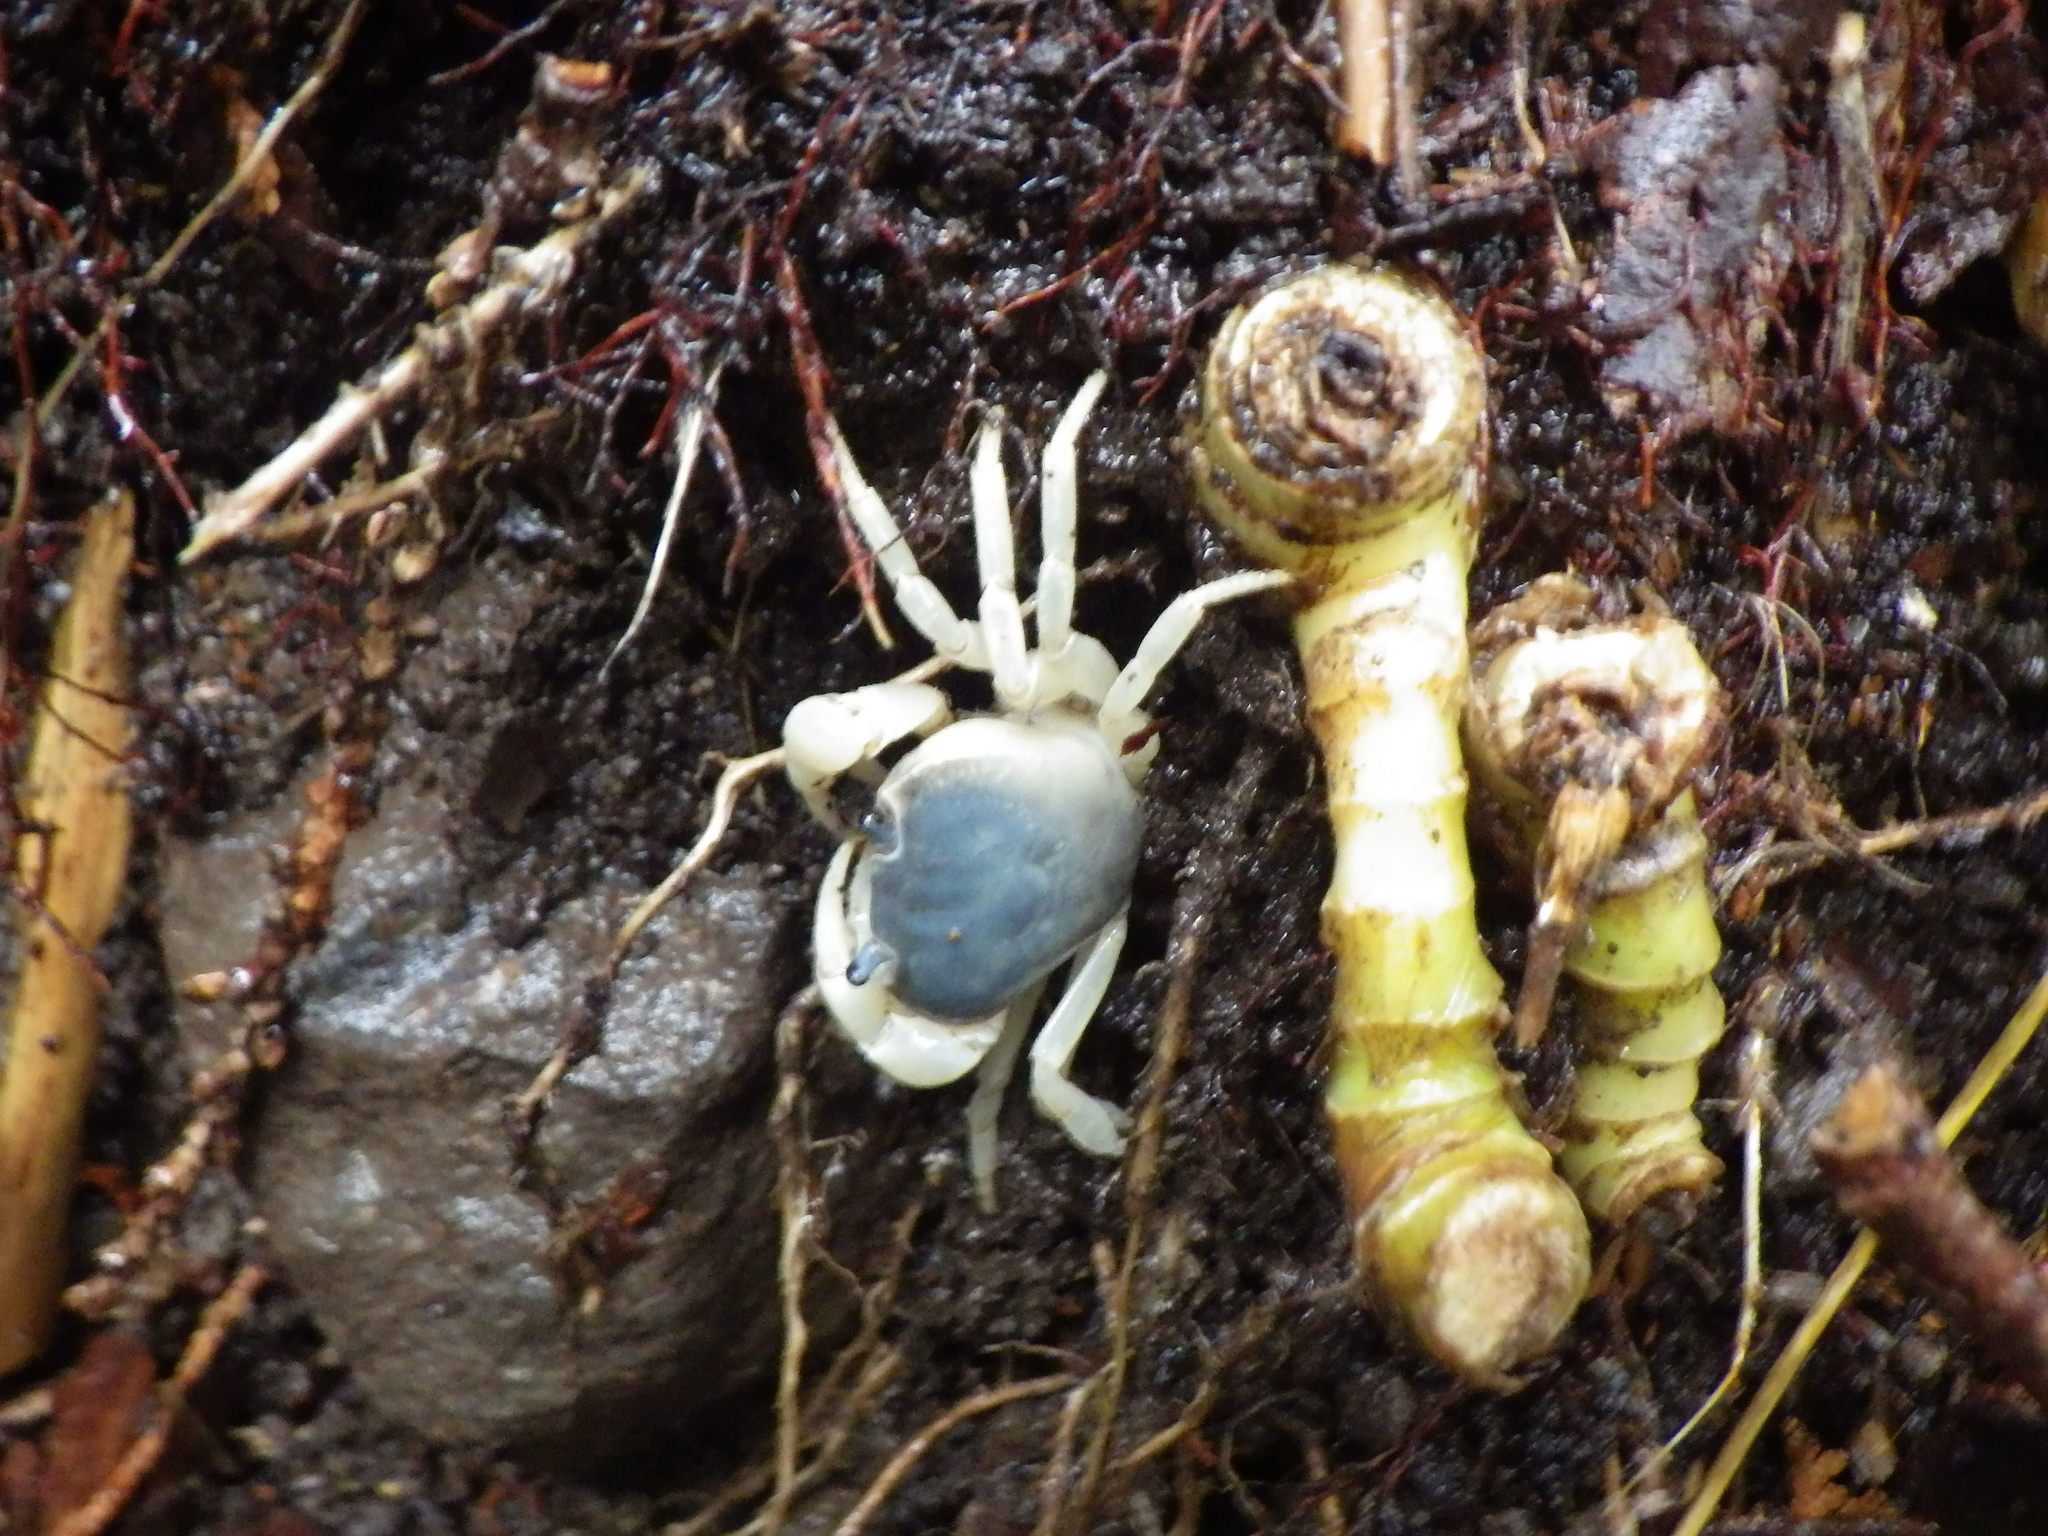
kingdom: Animalia
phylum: Arthropoda
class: Malacostraca
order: Decapoda
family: Potamidae
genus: Geothelphusa
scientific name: Geothelphusa dehaani
